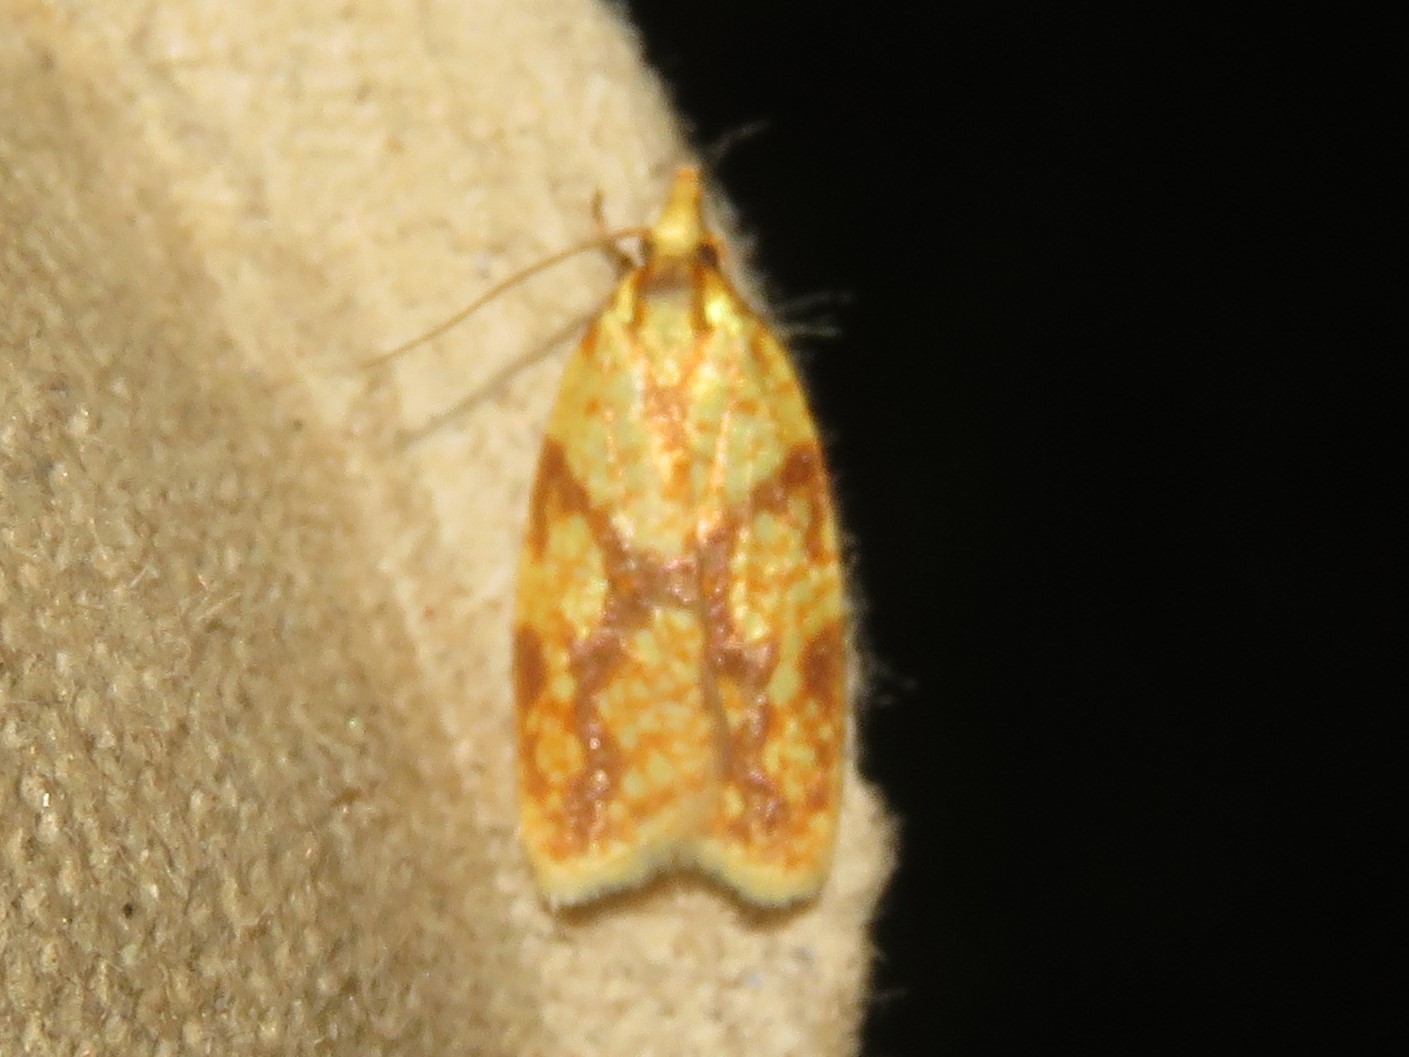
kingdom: Animalia
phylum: Arthropoda
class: Insecta
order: Lepidoptera
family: Tortricidae
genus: Sparganothis
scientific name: Sparganothis sulfureana
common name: Sparganothis fruitworm moth
